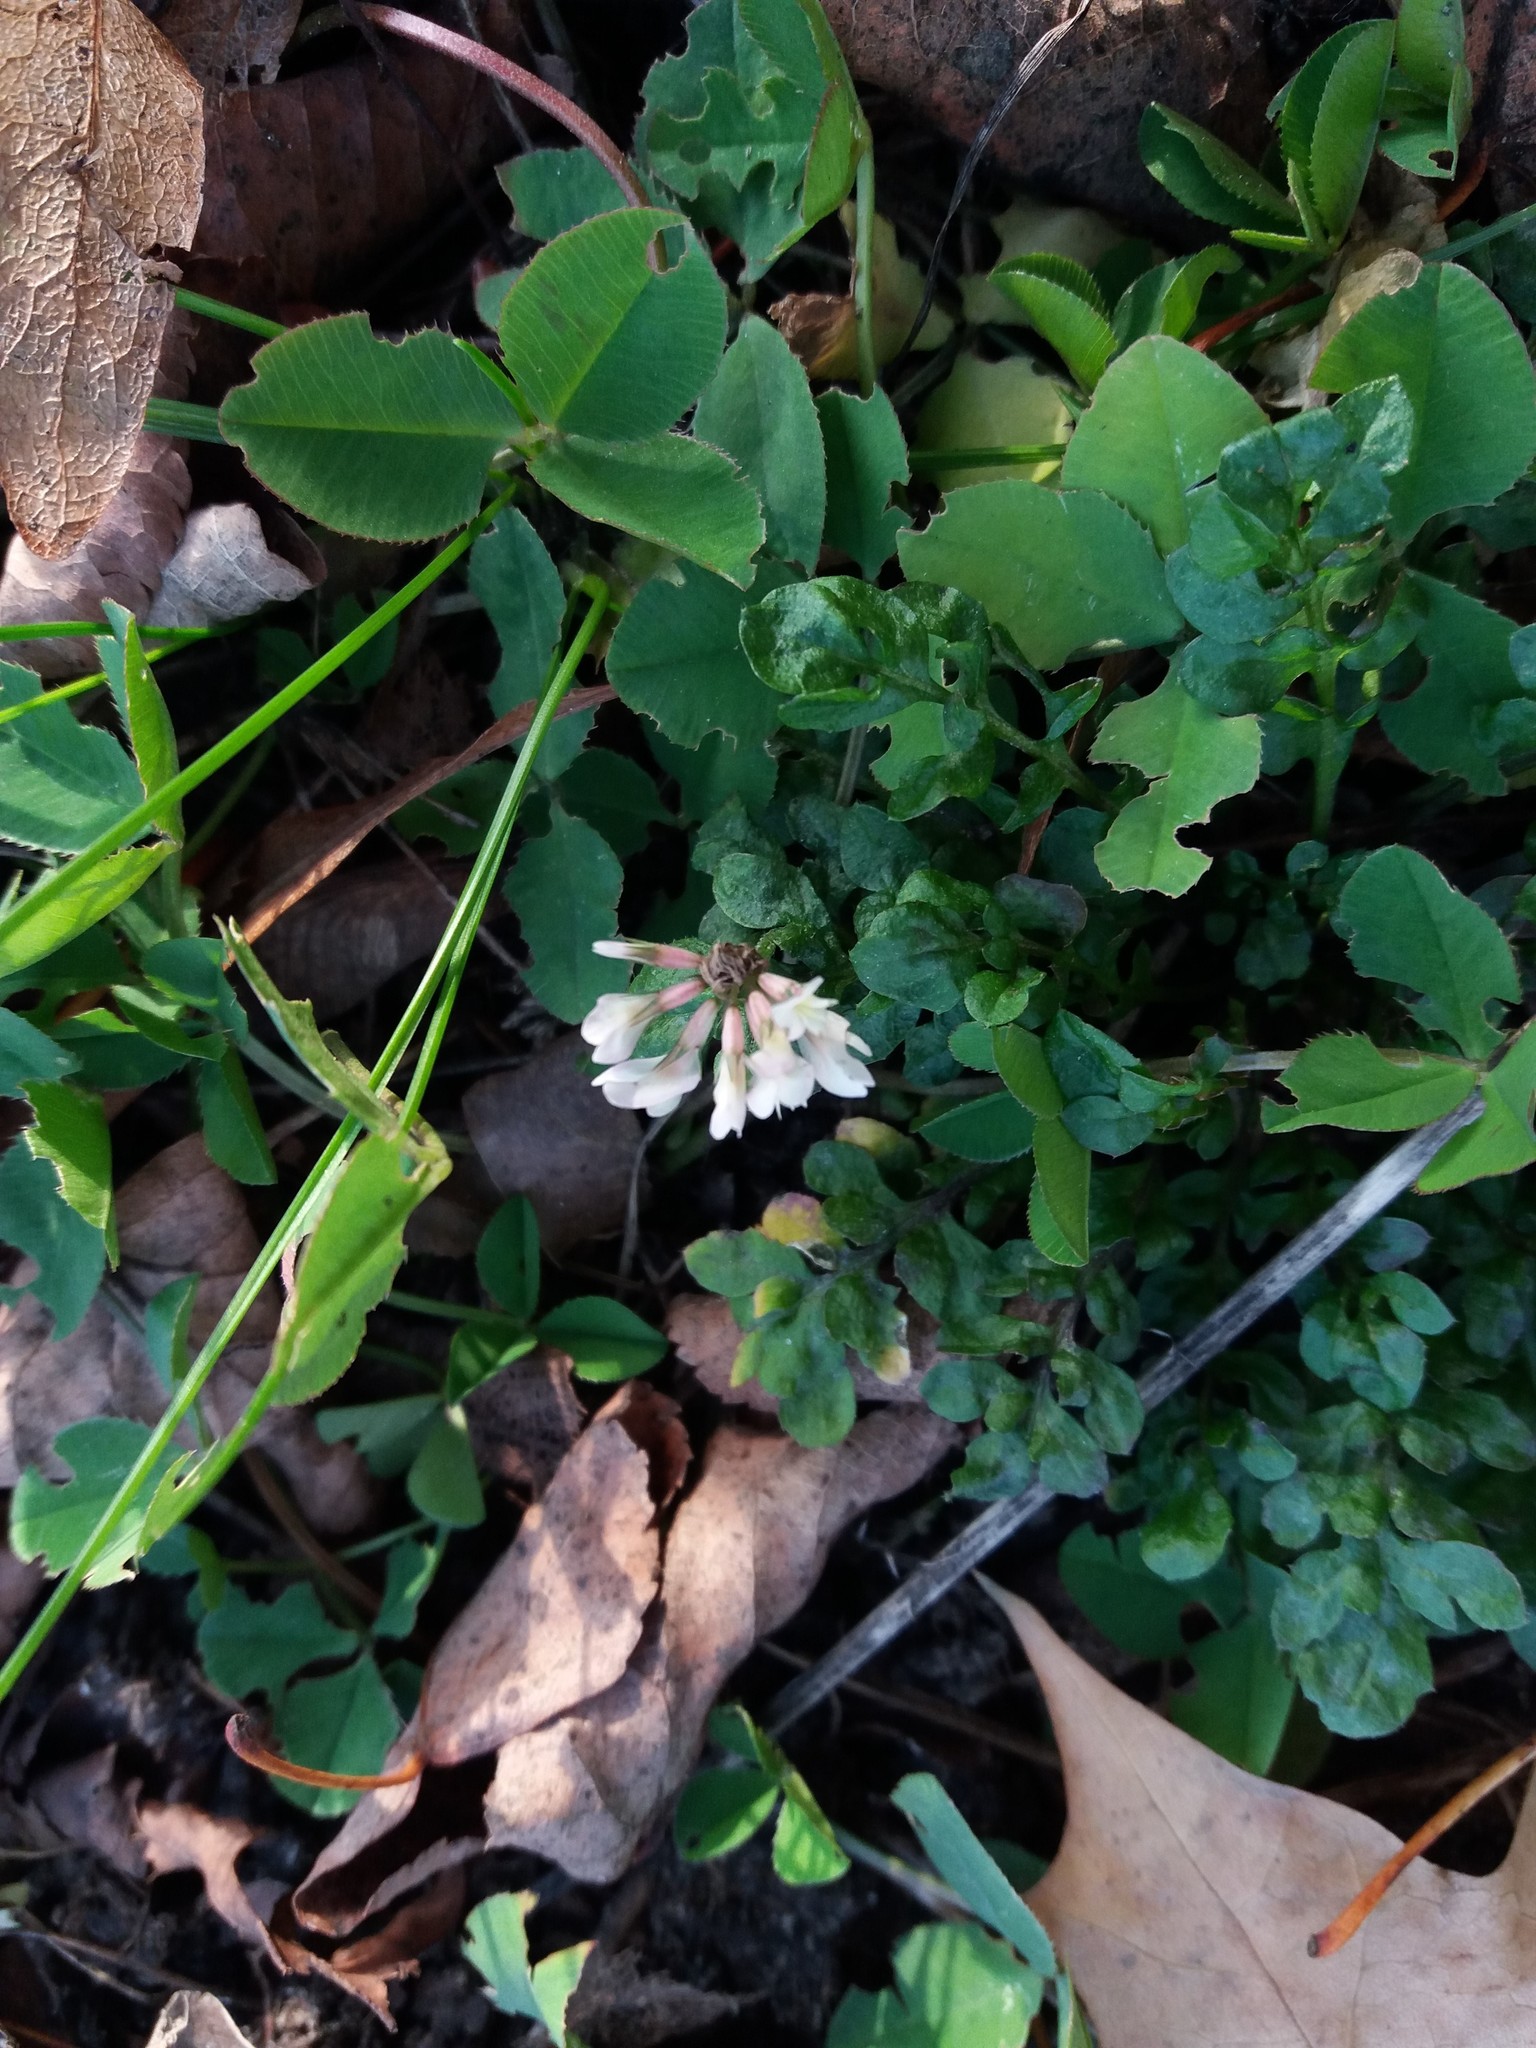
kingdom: Plantae
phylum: Tracheophyta
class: Magnoliopsida
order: Fabales
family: Fabaceae
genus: Trifolium
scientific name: Trifolium repens
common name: White clover
